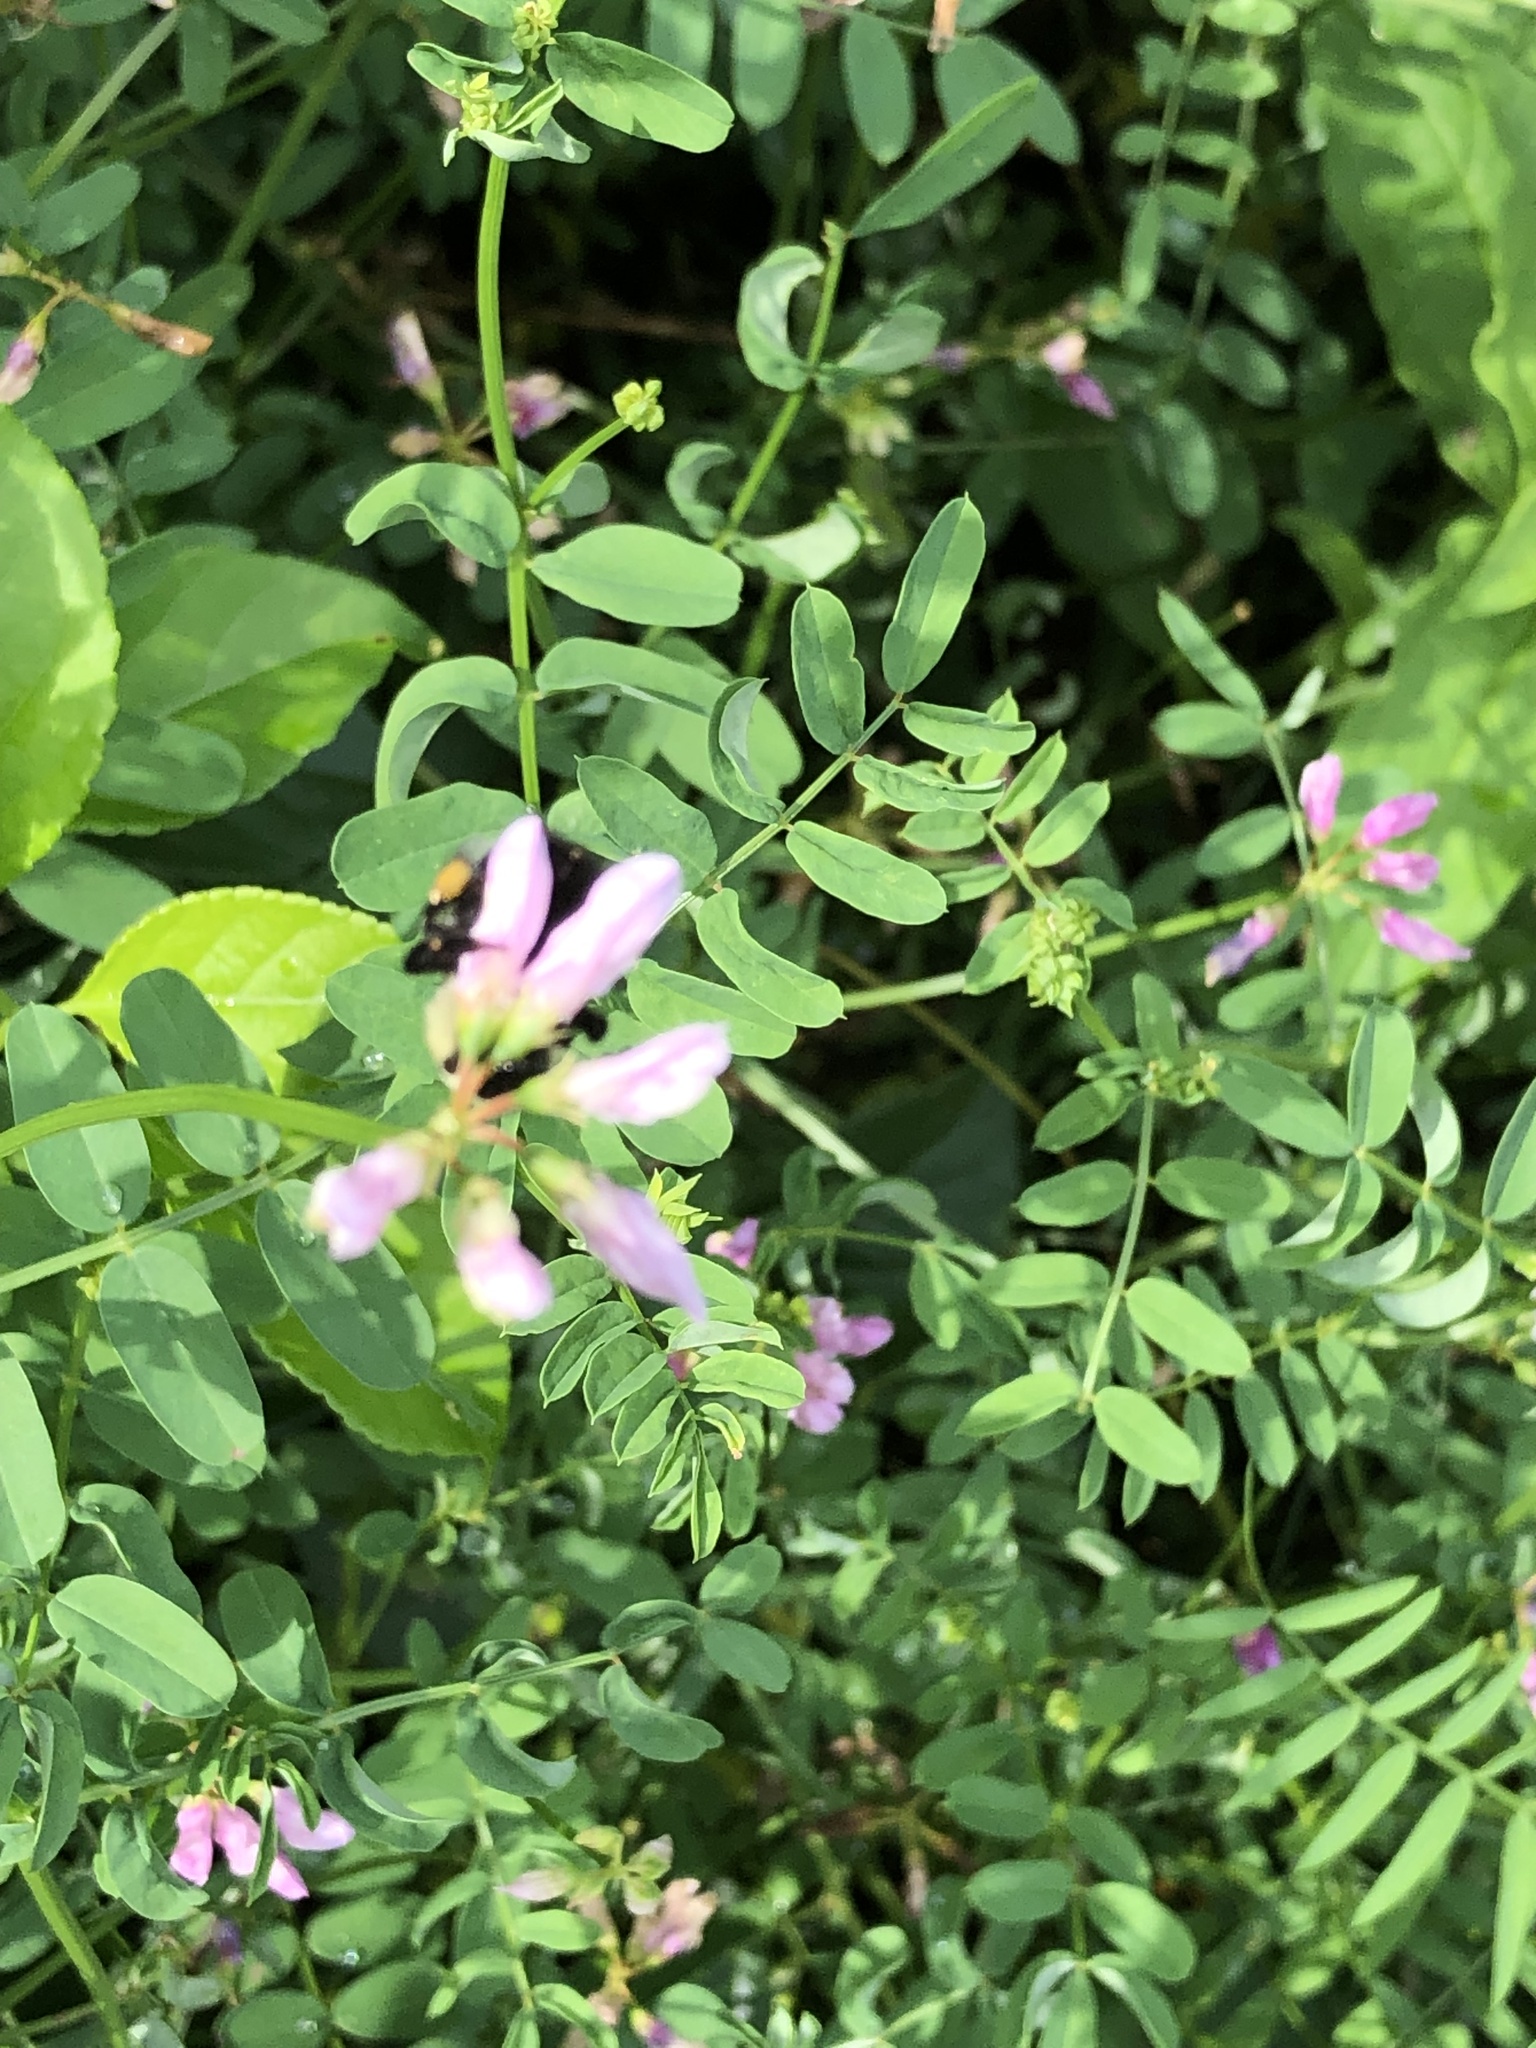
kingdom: Animalia
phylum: Arthropoda
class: Insecta
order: Hymenoptera
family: Apidae
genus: Bombus
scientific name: Bombus impatiens
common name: Common eastern bumble bee
